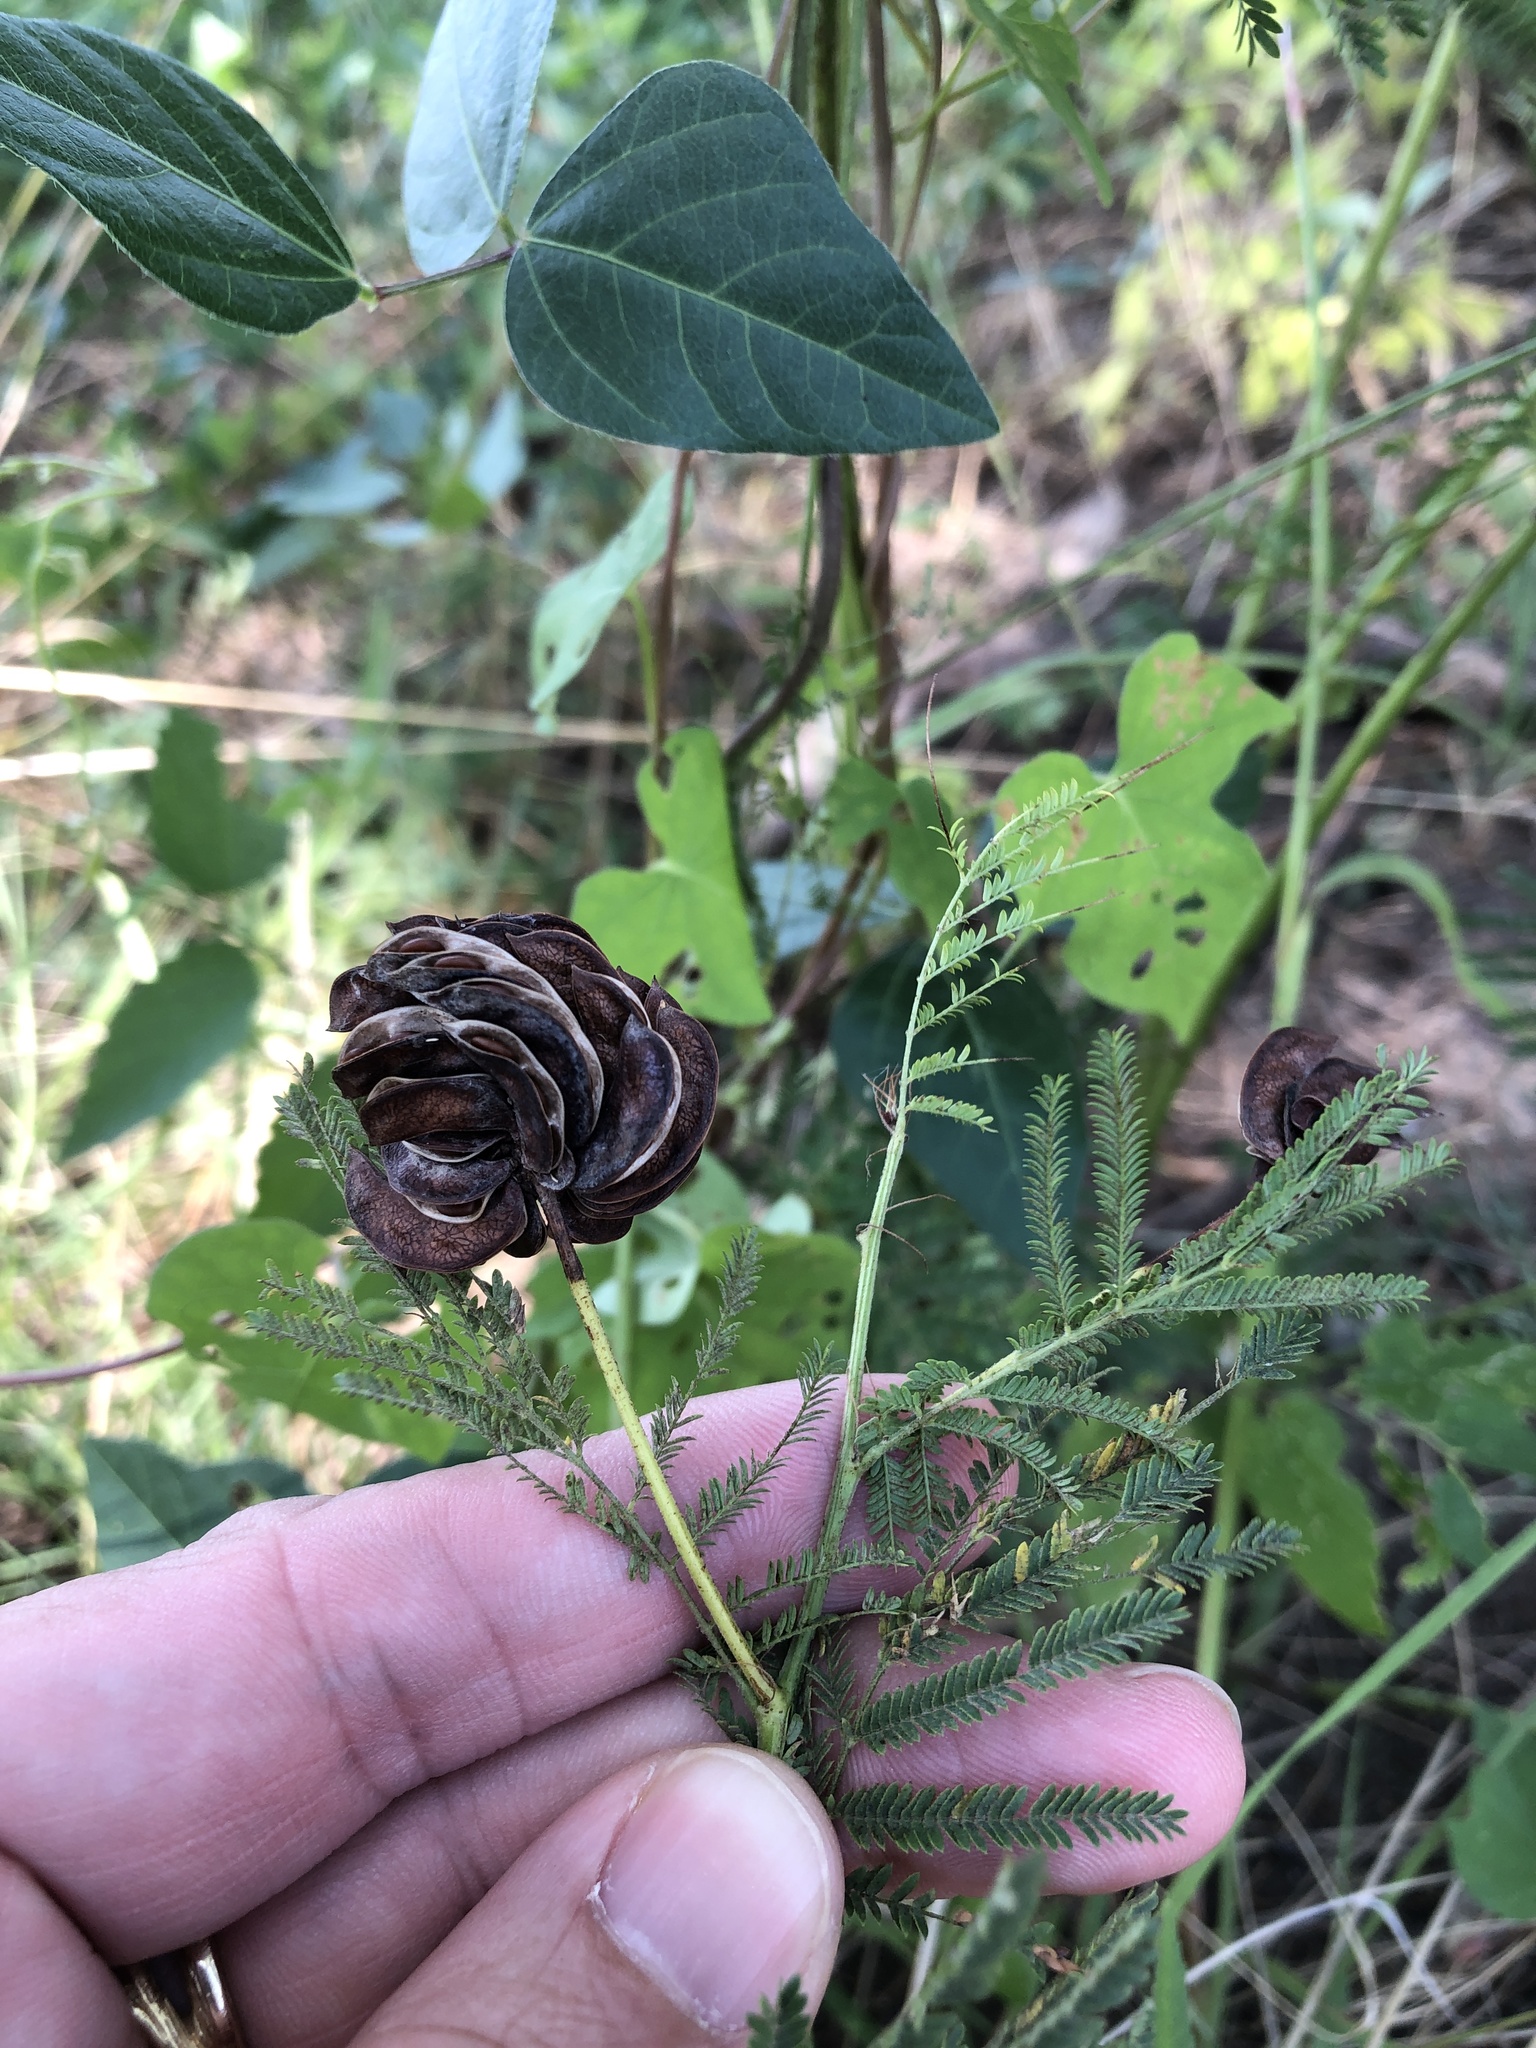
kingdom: Plantae
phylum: Tracheophyta
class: Magnoliopsida
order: Fabales
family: Fabaceae
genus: Desmanthus
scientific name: Desmanthus illinoensis
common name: Illinois bundle-flower
